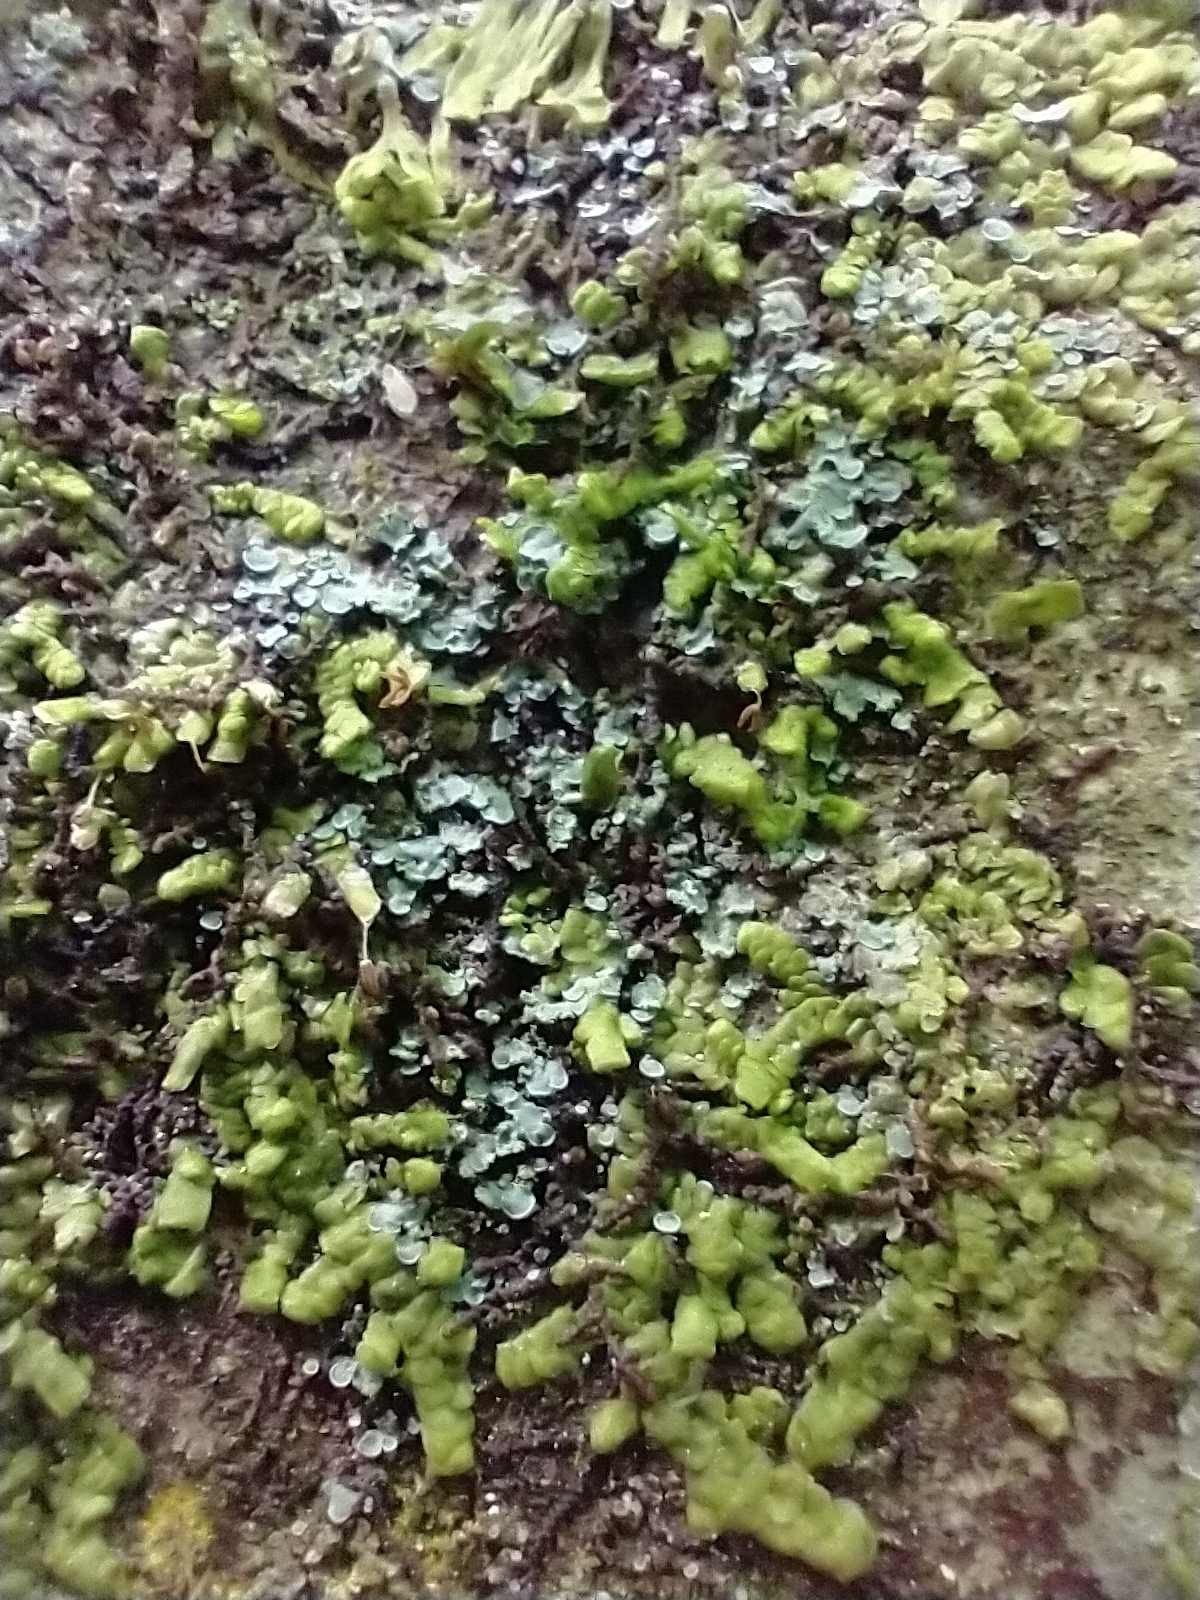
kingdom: Plantae
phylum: Marchantiophyta
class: Jungermanniopsida
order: Porellales
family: Radulaceae
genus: Radula
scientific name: Radula complanata
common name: Flat-leaved scalewort
